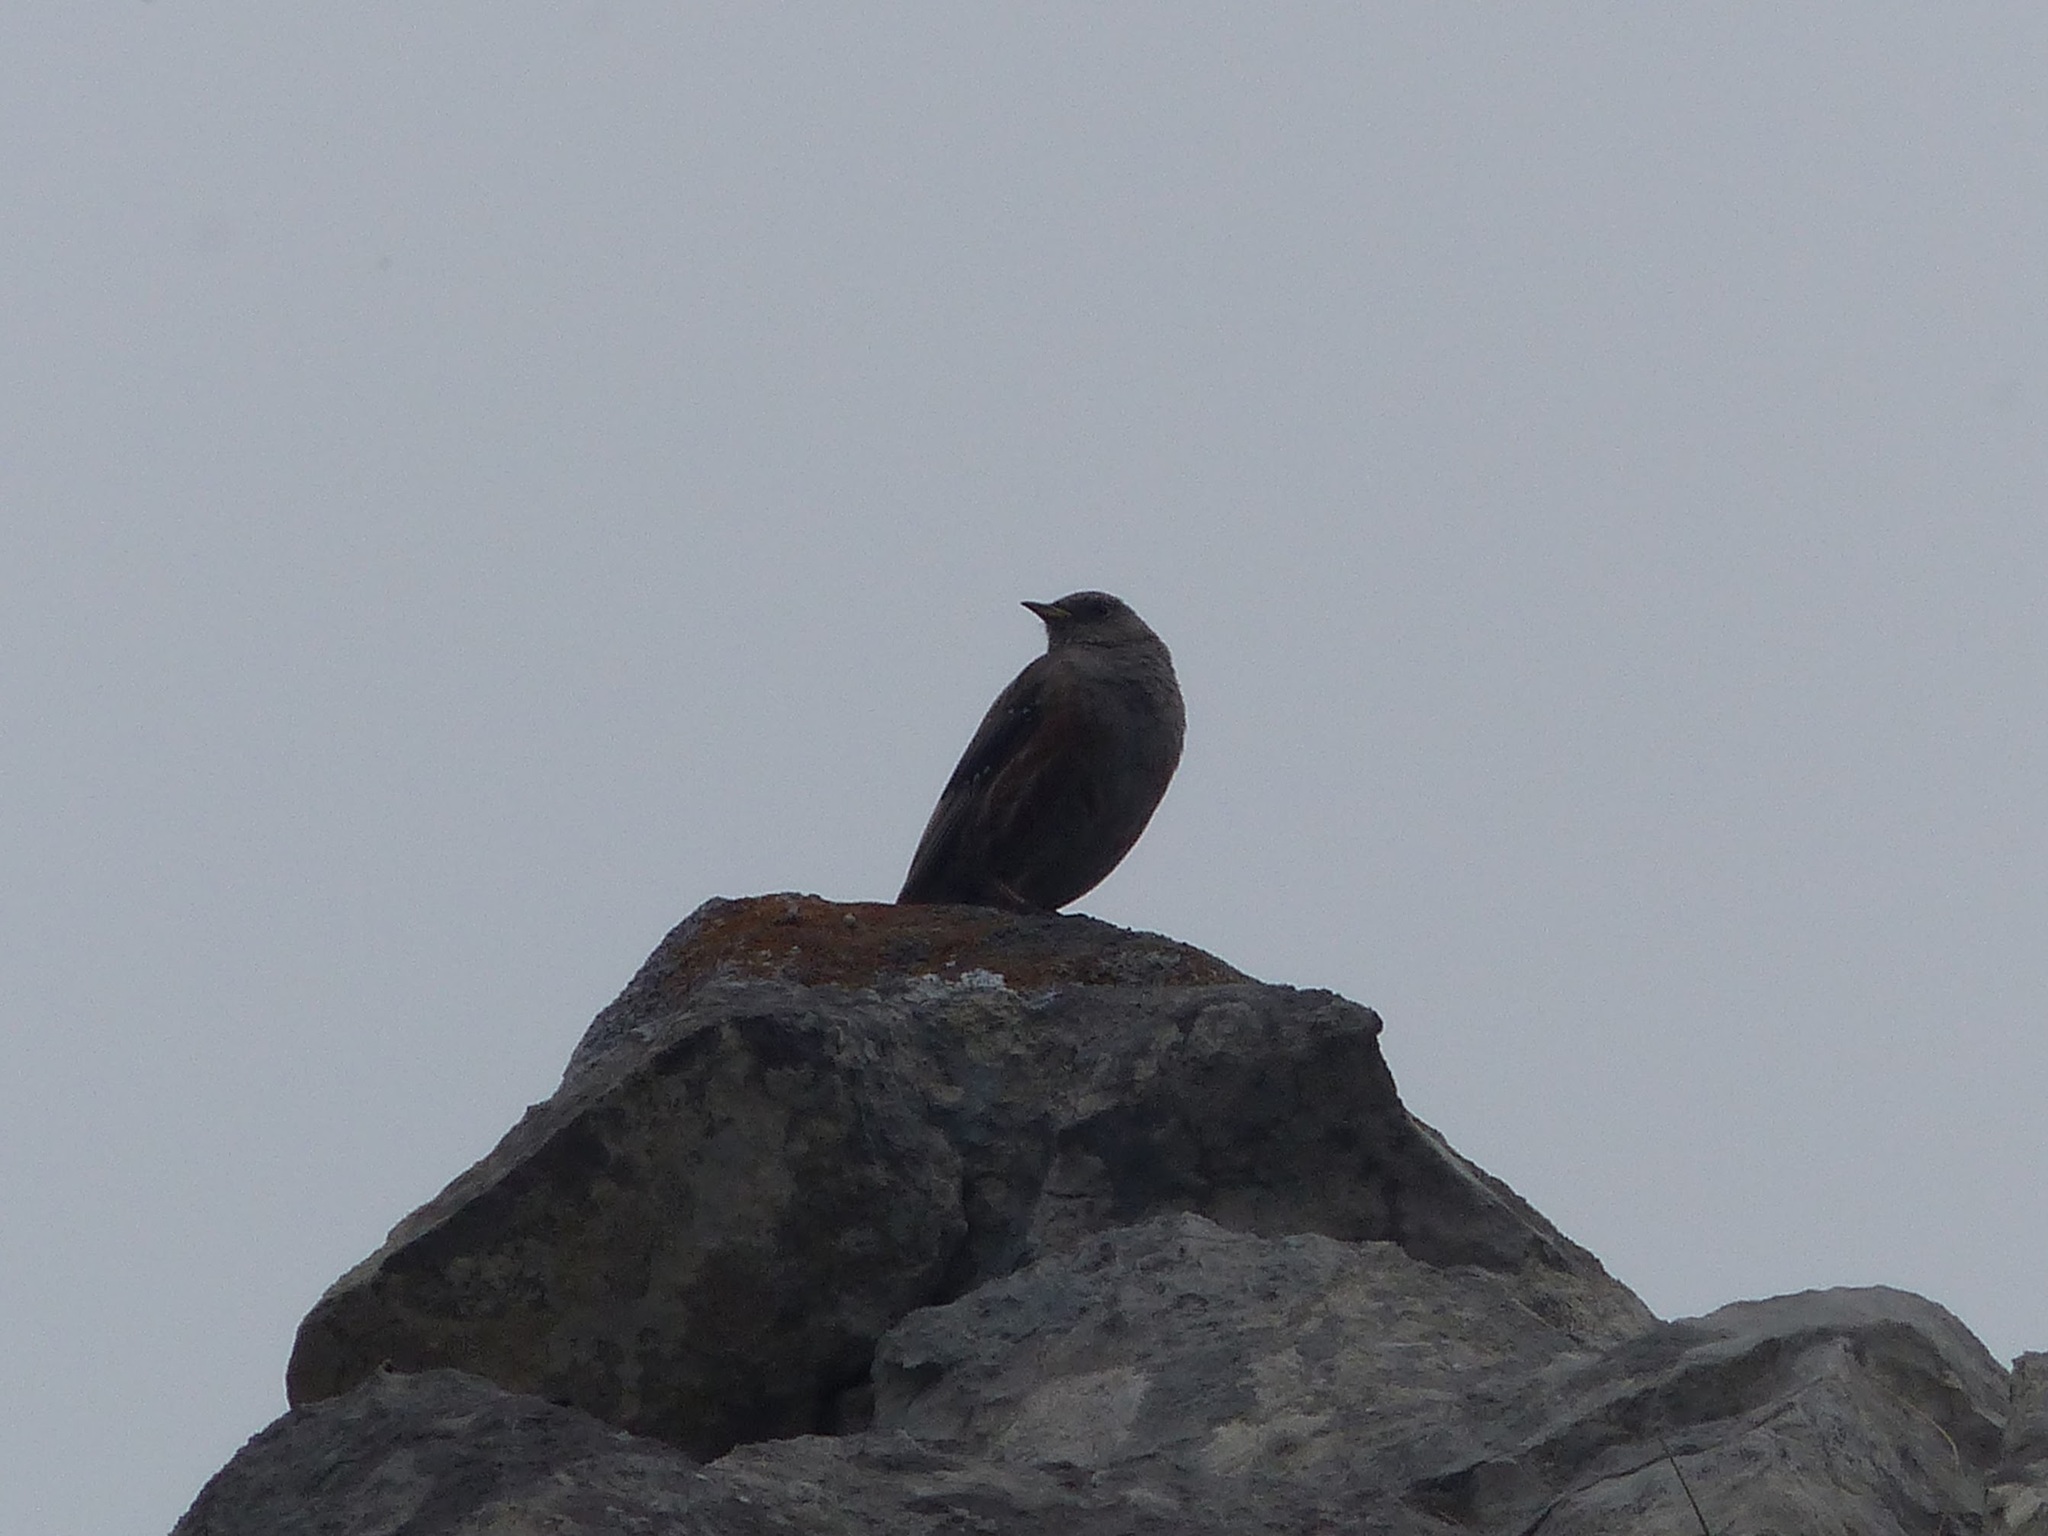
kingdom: Animalia
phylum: Chordata
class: Aves
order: Passeriformes
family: Prunellidae
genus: Prunella
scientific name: Prunella collaris
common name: Alpine accentor
